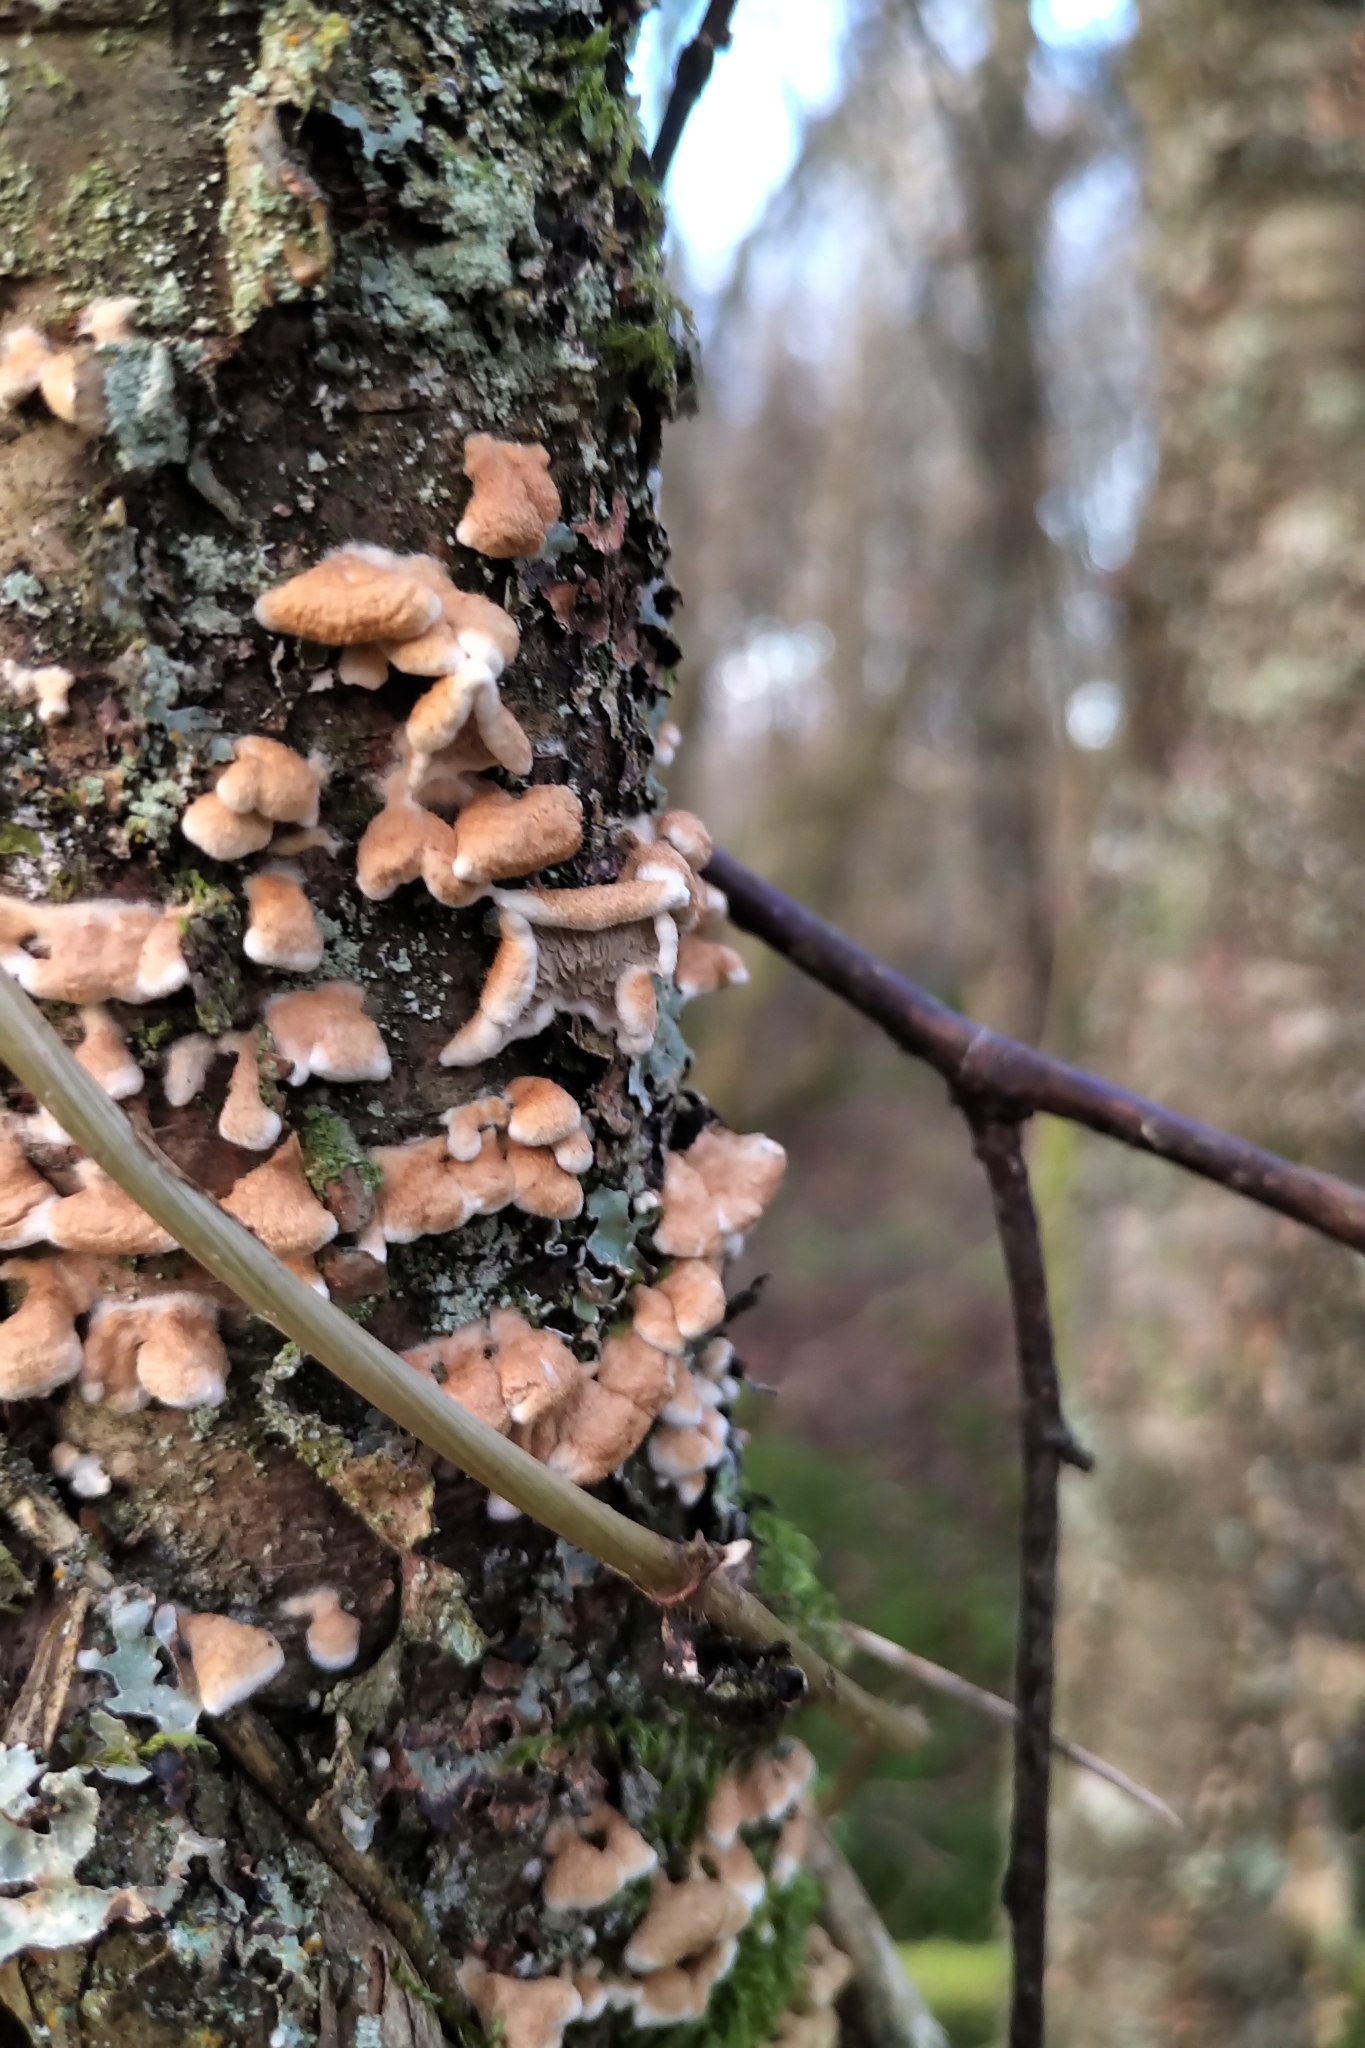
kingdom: Fungi
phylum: Basidiomycota
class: Agaricomycetes
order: Amylocorticiales
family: Amylocorticiaceae
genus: Plicaturopsis
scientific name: Plicaturopsis crispa
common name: Crimped gill
